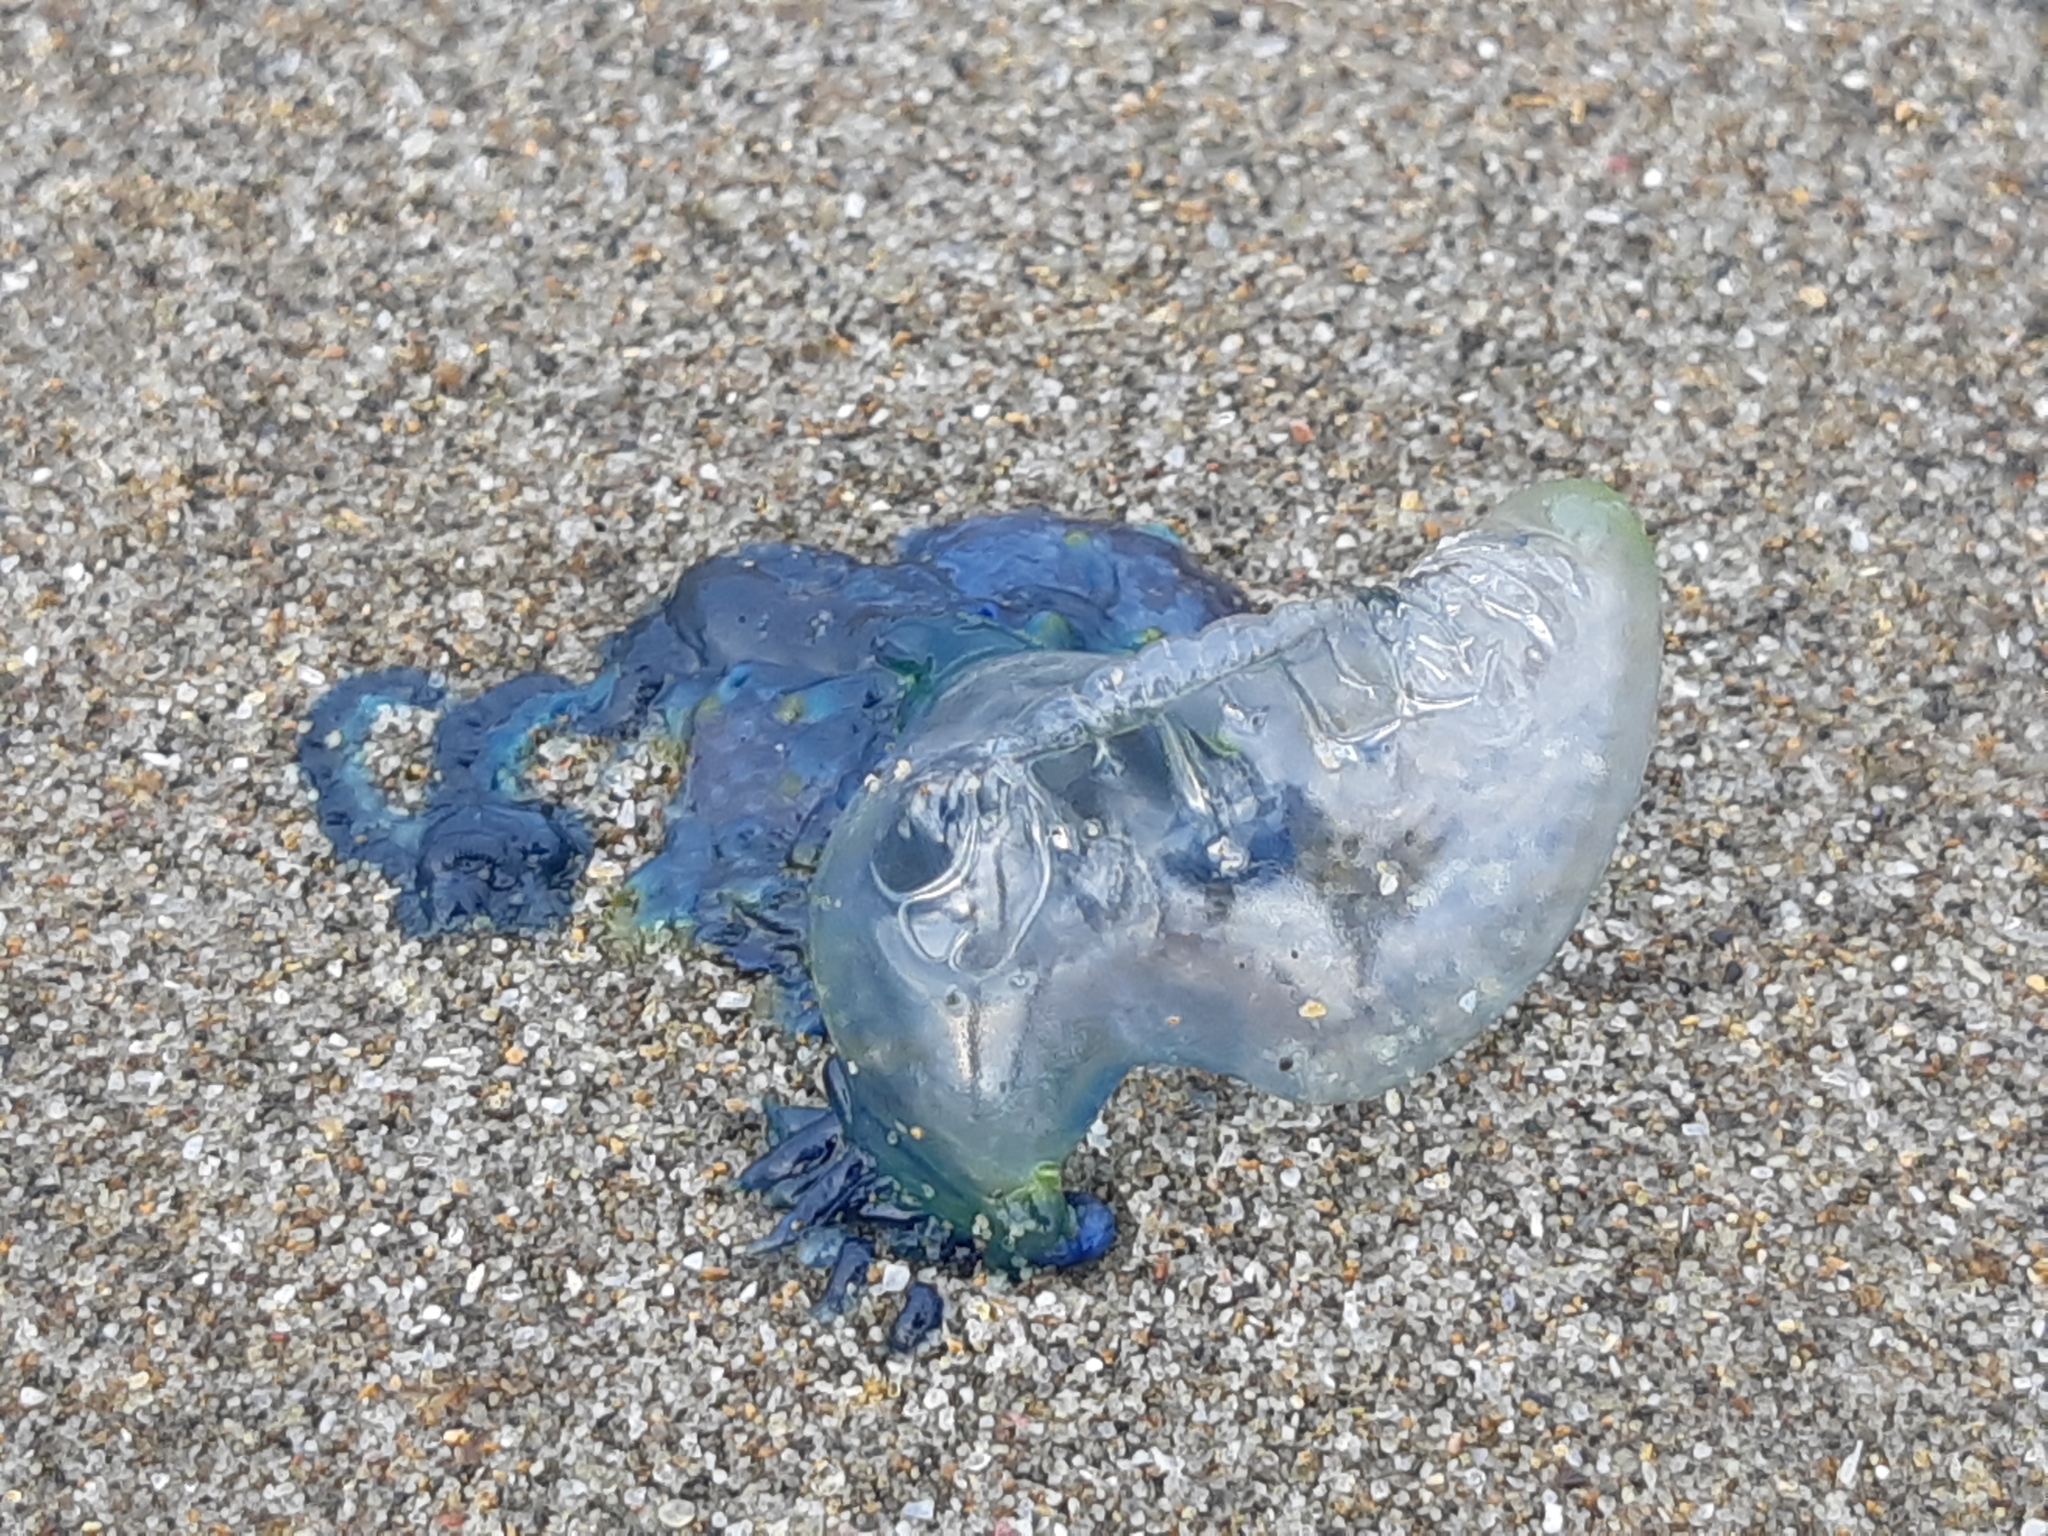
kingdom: Animalia
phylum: Cnidaria
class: Hydrozoa
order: Siphonophorae
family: Physaliidae
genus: Physalia
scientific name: Physalia physalis
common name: Portuguese man-of-war
